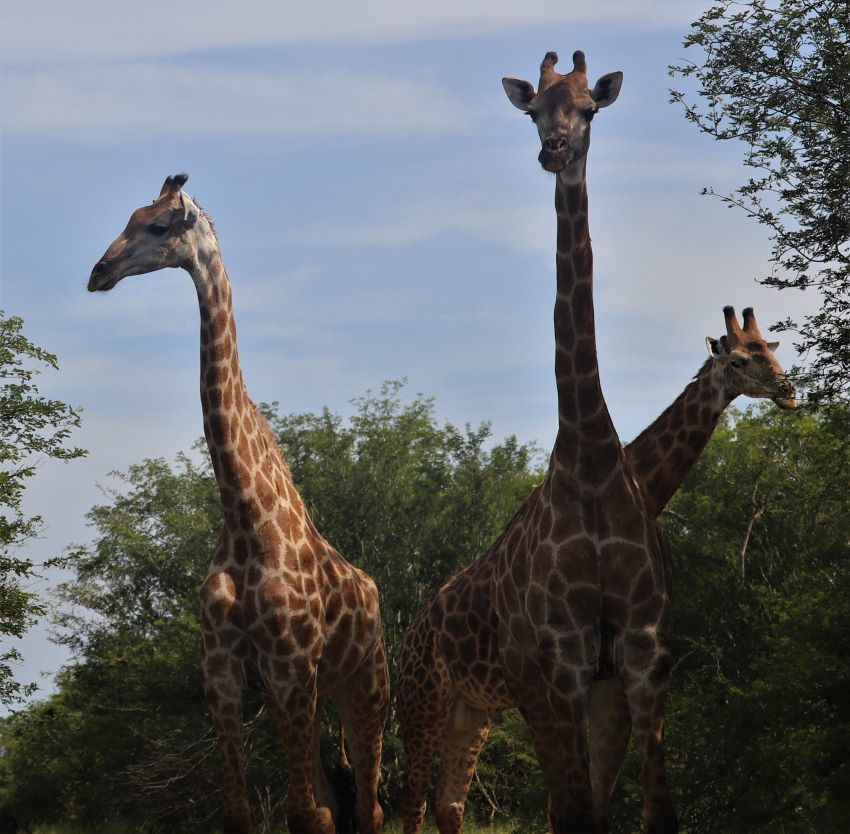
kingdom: Animalia
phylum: Chordata
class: Mammalia
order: Artiodactyla
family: Giraffidae
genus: Giraffa
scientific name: Giraffa giraffa
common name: Southern giraffe
